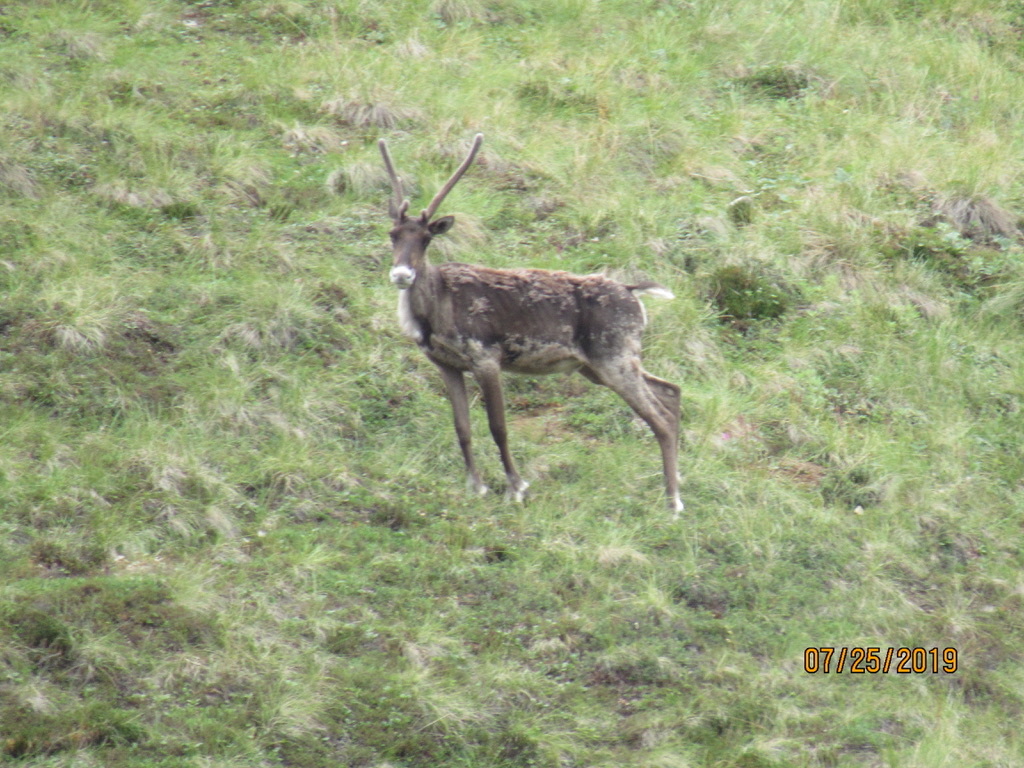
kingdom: Animalia
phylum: Chordata
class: Mammalia
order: Artiodactyla
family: Cervidae
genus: Rangifer
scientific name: Rangifer tarandus
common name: Reindeer
